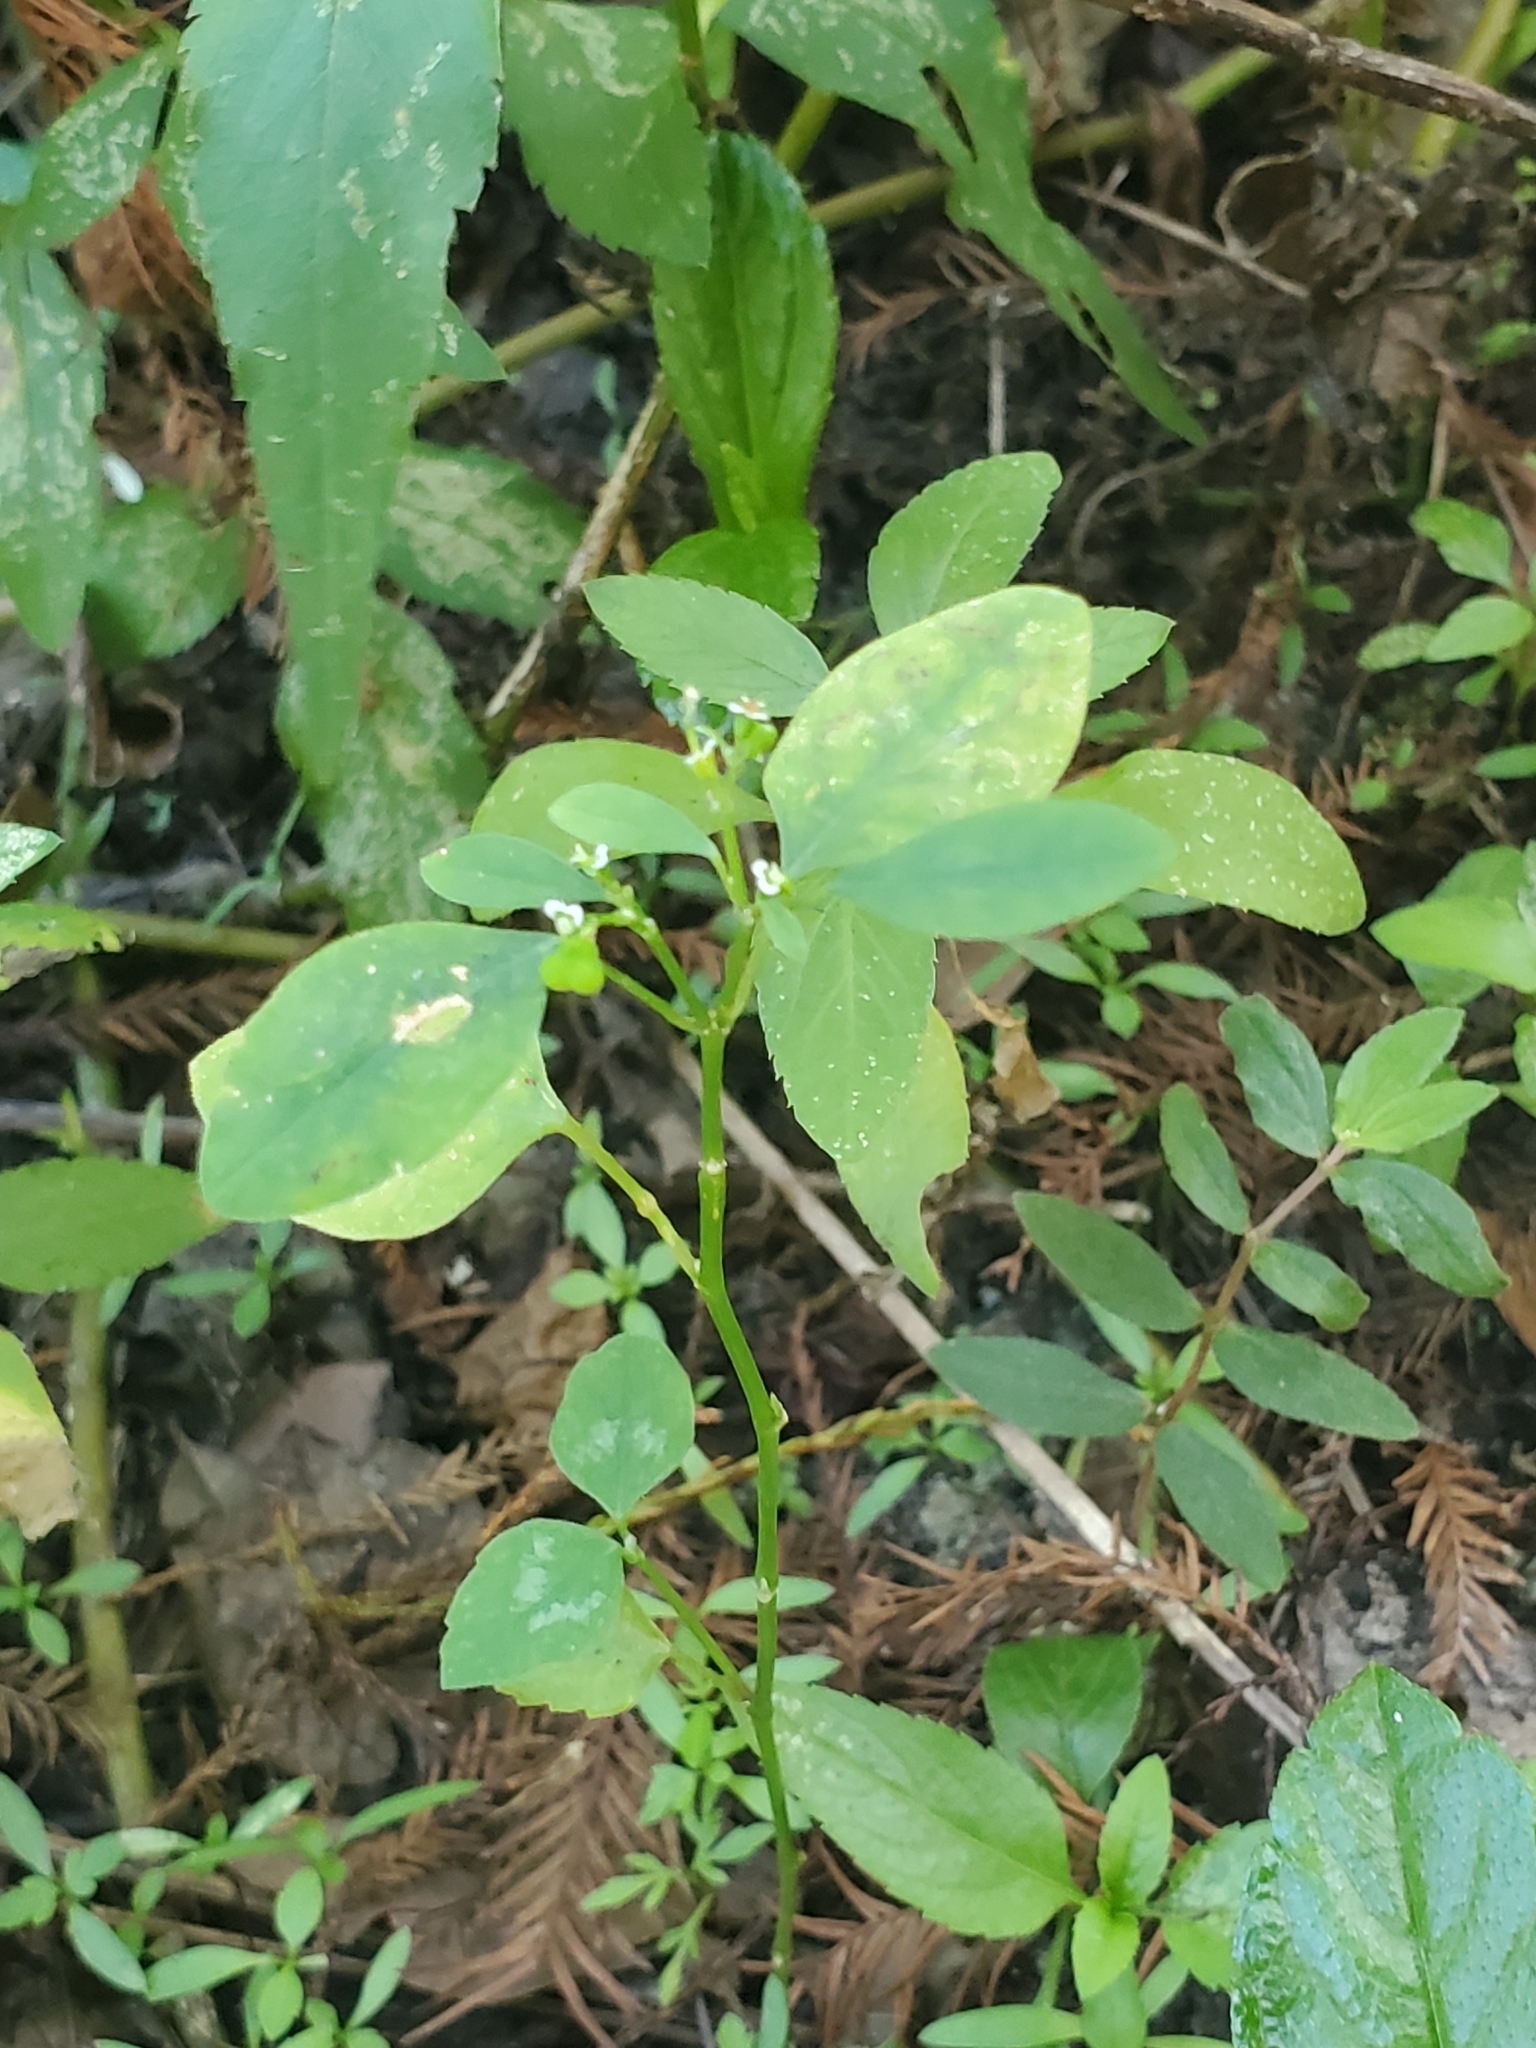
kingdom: Plantae
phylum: Tracheophyta
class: Magnoliopsida
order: Malpighiales
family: Euphorbiaceae
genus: Euphorbia
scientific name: Euphorbia graminea
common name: Grassleaf spurge
